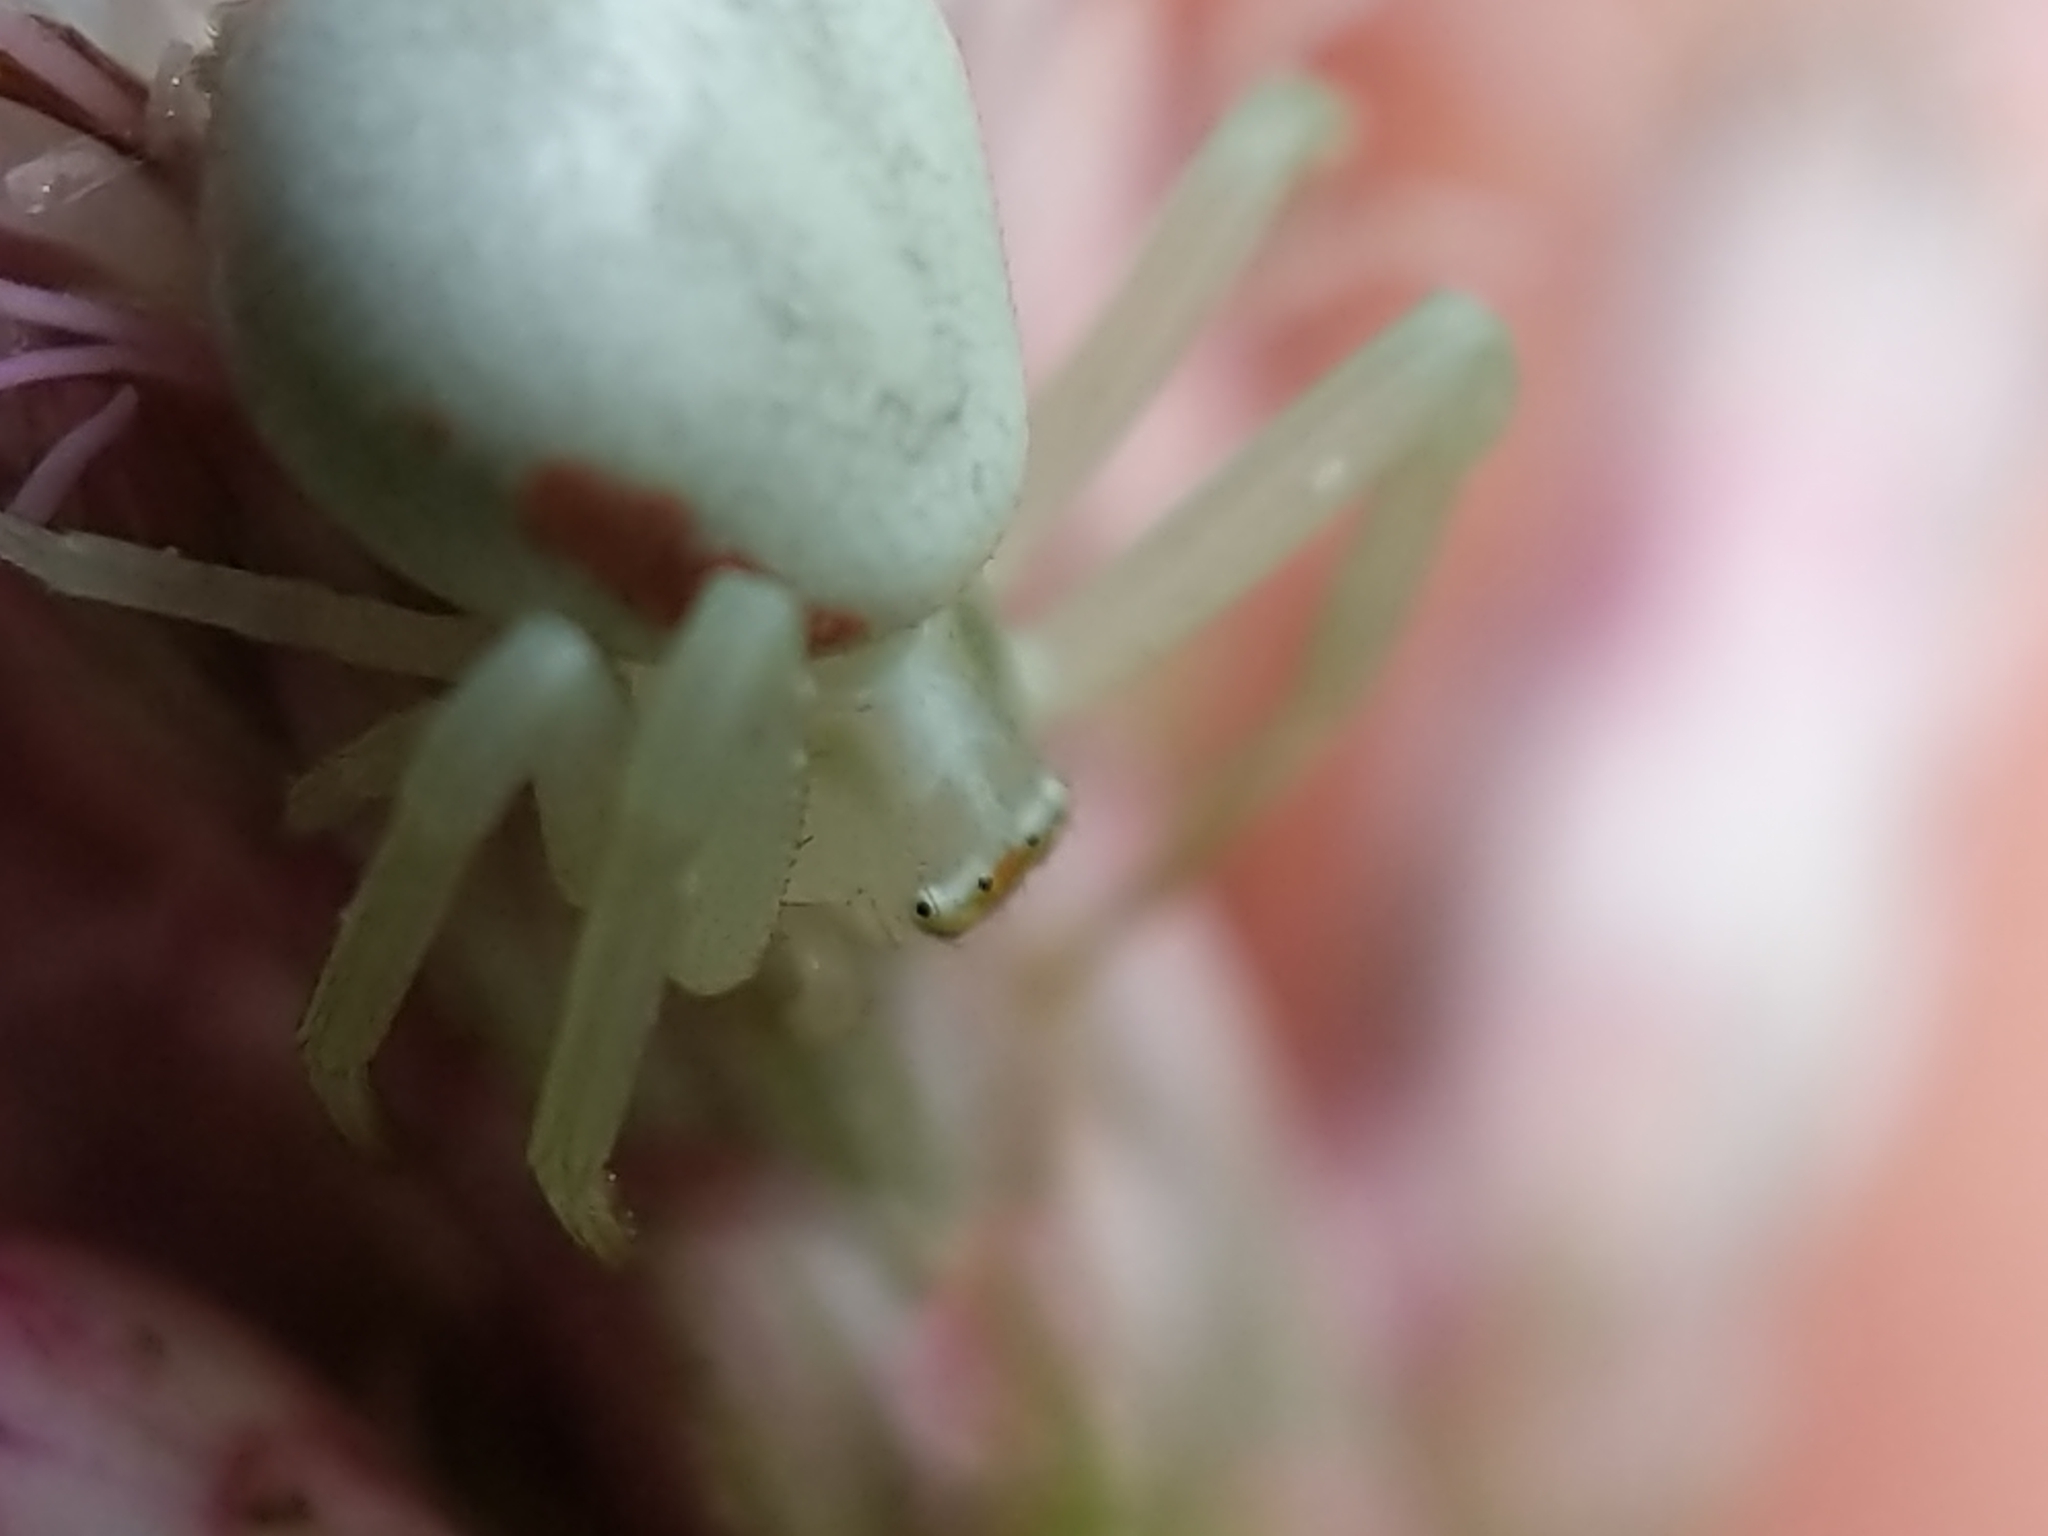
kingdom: Animalia
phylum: Arthropoda
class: Arachnida
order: Araneae
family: Thomisidae
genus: Misumena
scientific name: Misumena vatia
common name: Goldenrod crab spider
